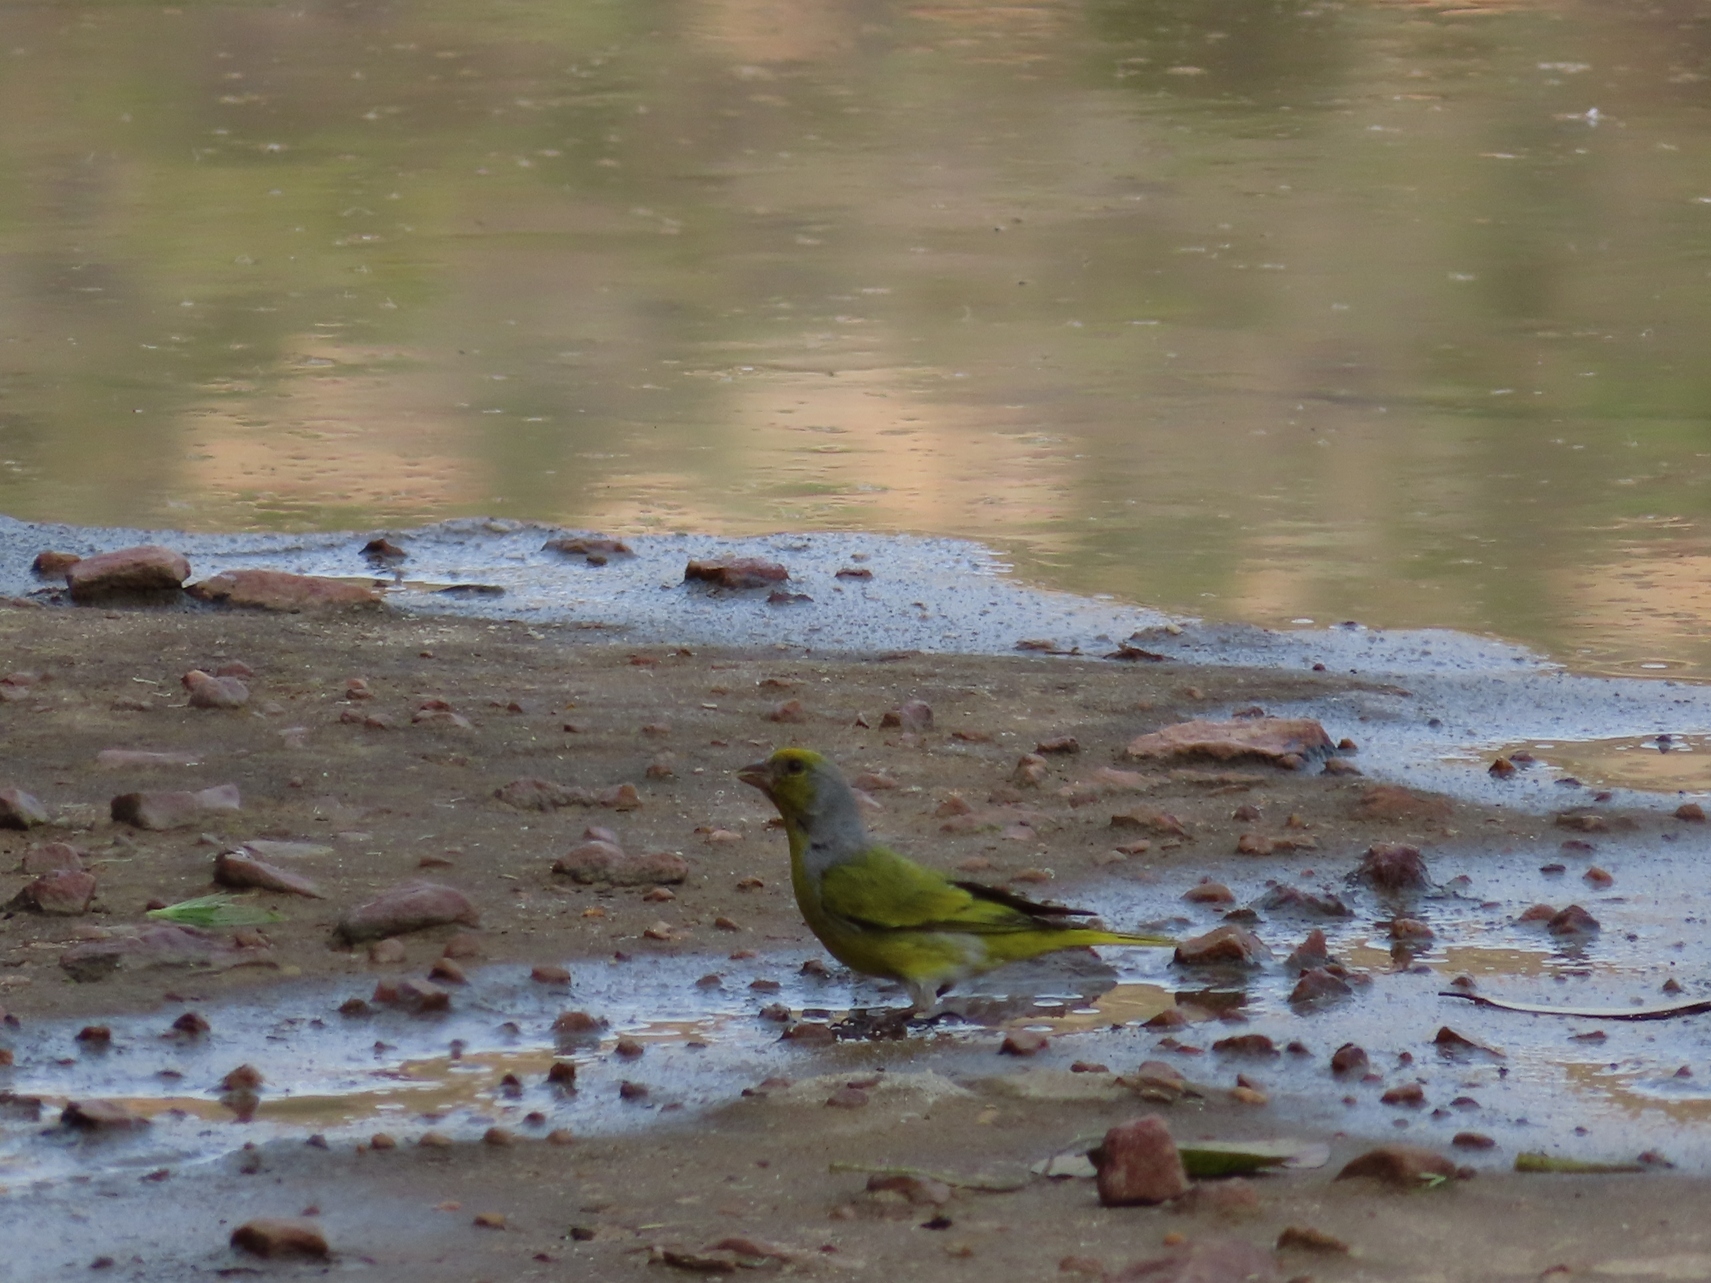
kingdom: Animalia
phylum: Chordata
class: Aves
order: Passeriformes
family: Fringillidae
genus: Serinus
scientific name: Serinus canicollis
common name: Cape canary
